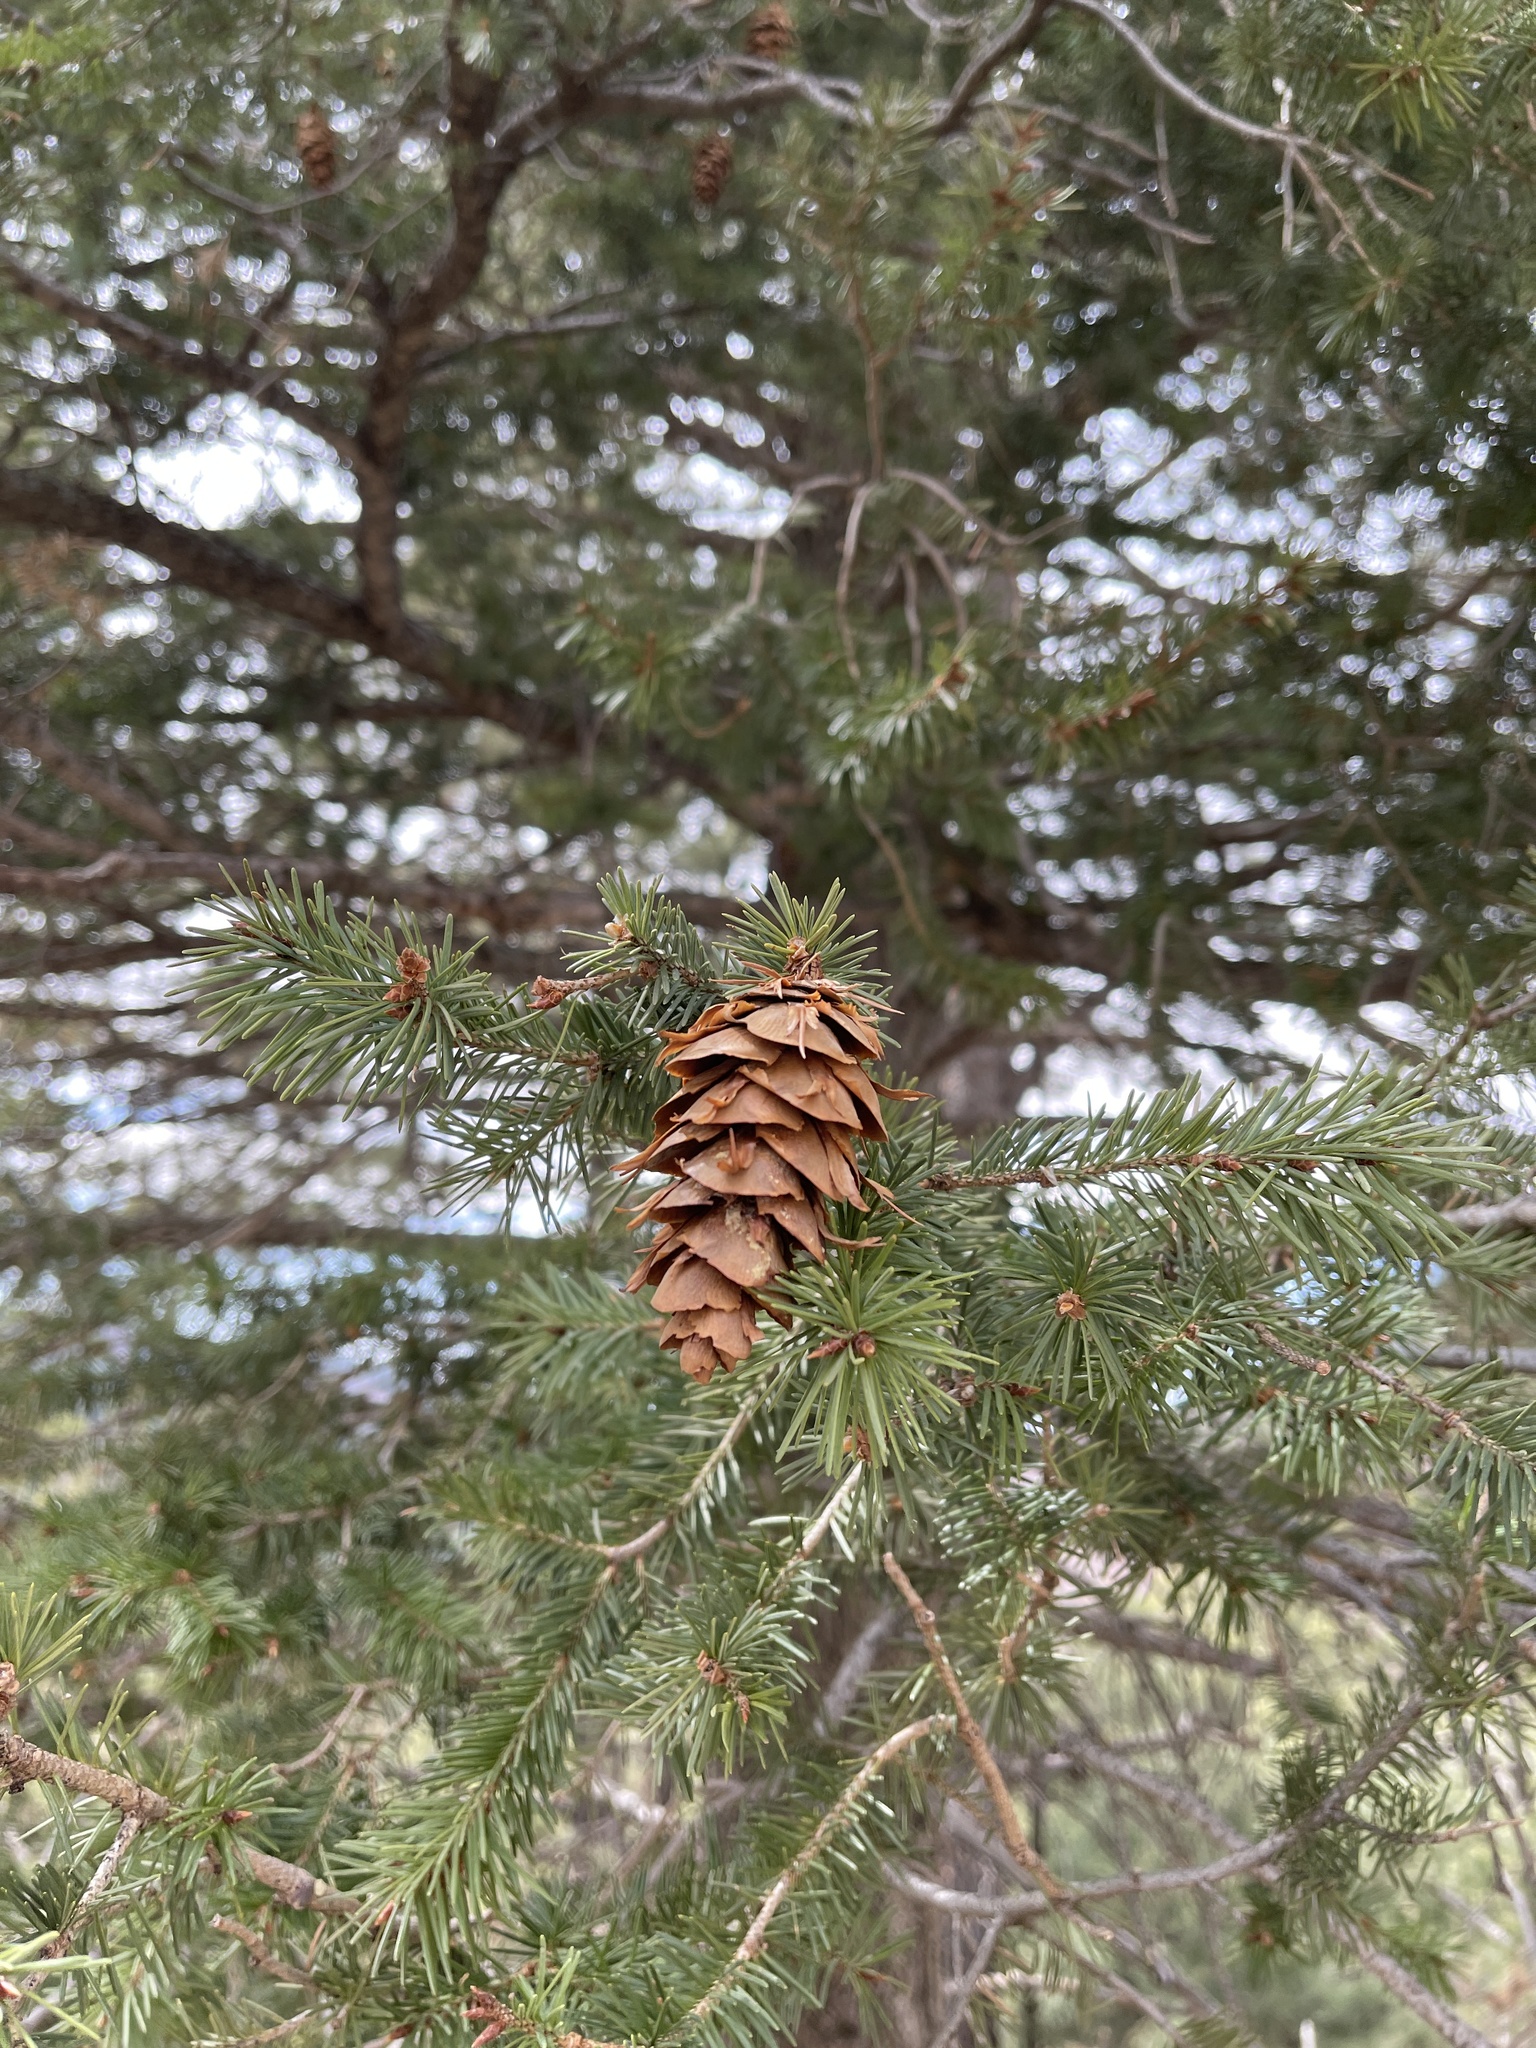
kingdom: Plantae
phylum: Tracheophyta
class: Pinopsida
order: Pinales
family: Pinaceae
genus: Pseudotsuga
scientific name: Pseudotsuga menziesii
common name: Douglas fir
